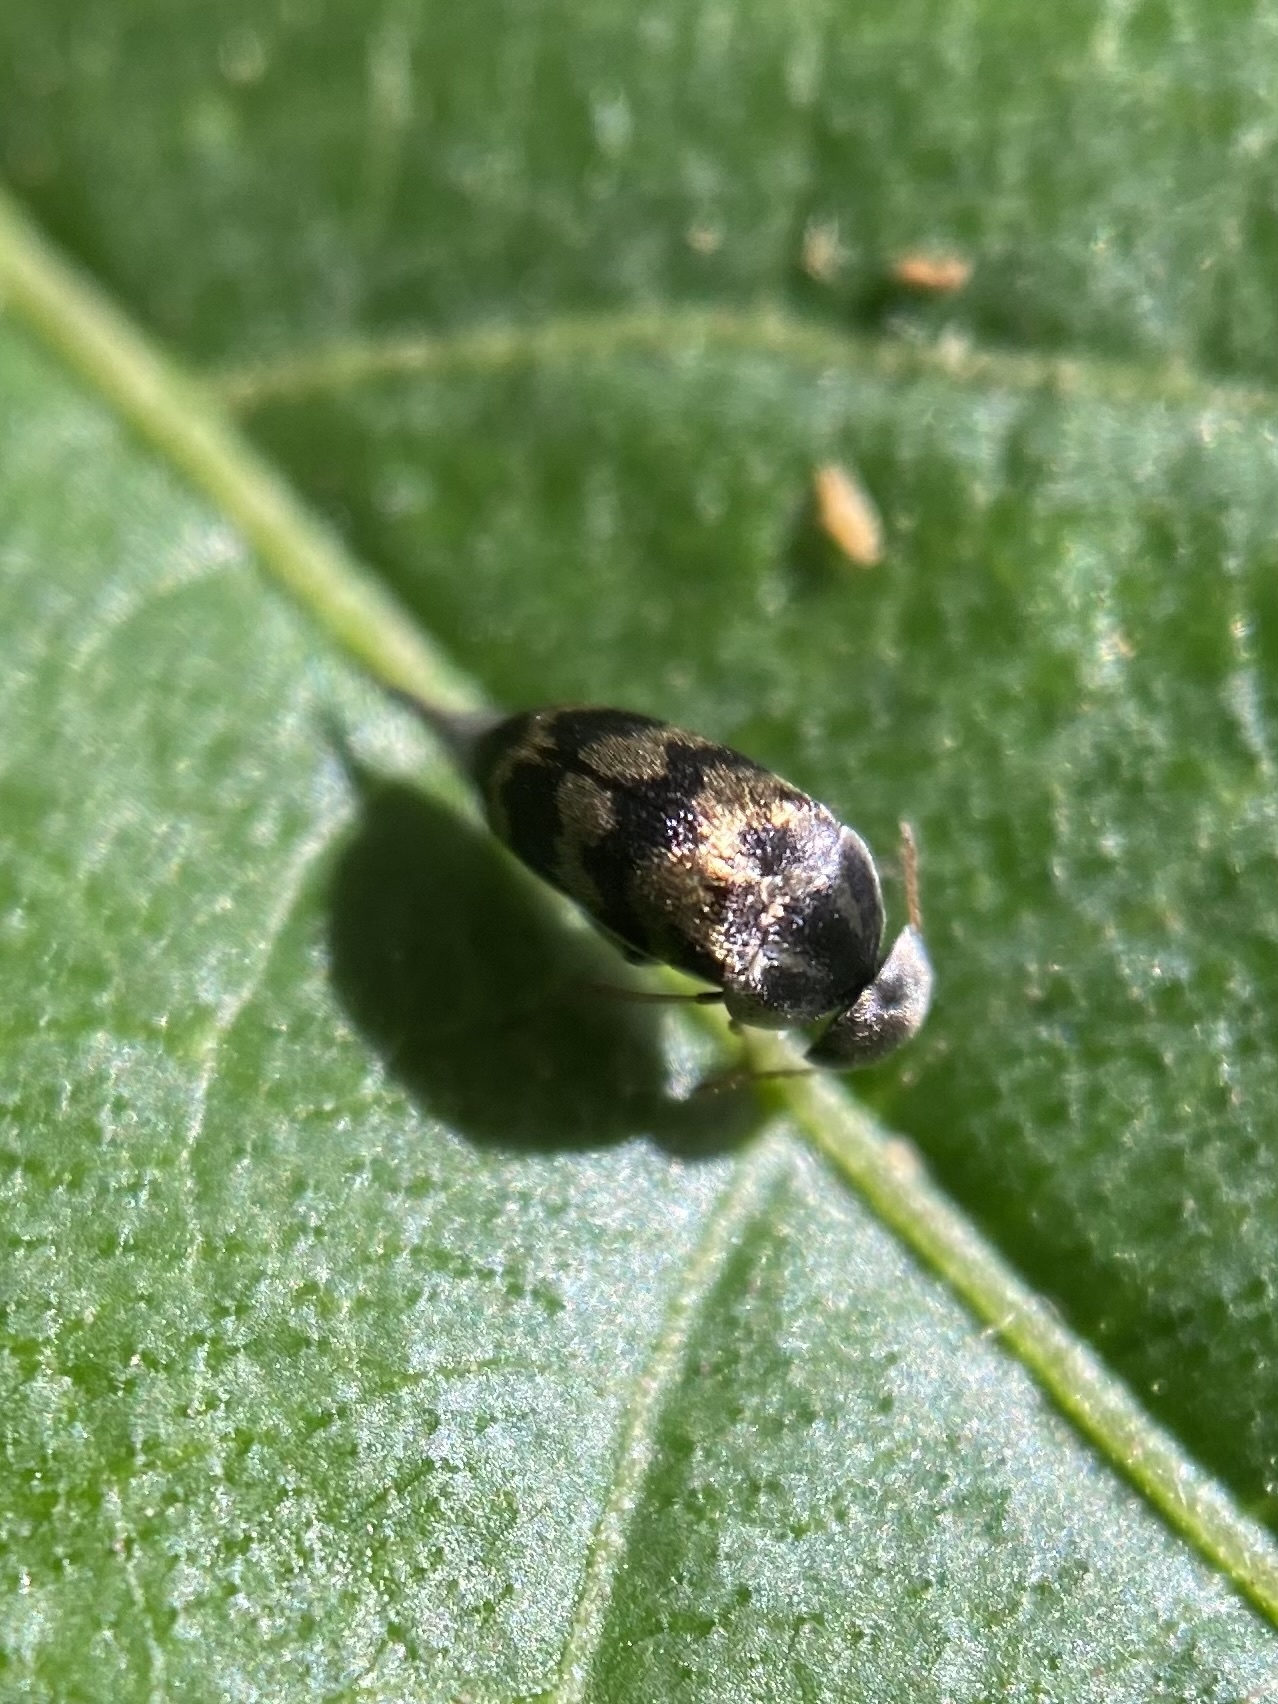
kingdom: Animalia
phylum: Arthropoda
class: Insecta
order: Coleoptera
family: Mordellidae
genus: Paramordellaria
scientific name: Paramordellaria triloba
